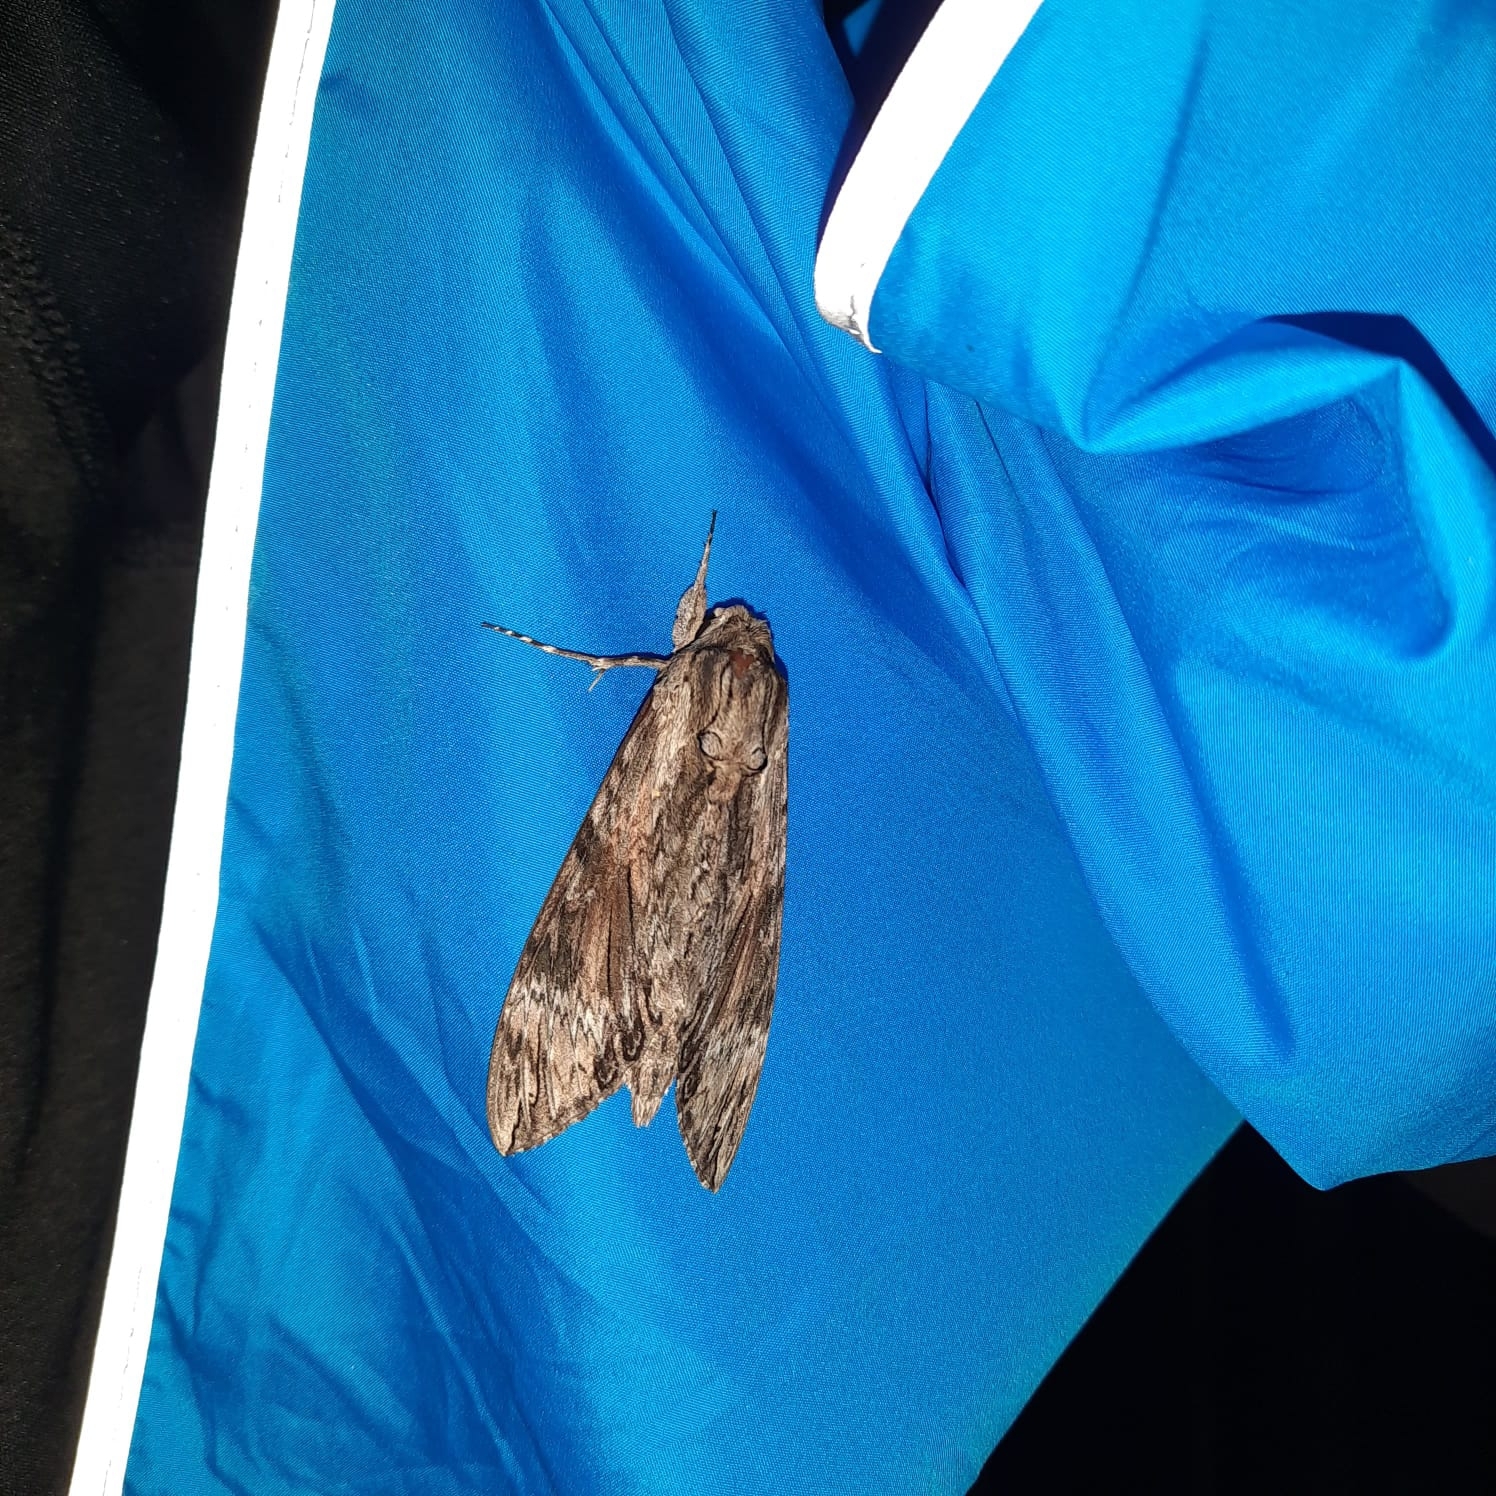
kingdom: Animalia
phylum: Arthropoda
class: Insecta
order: Lepidoptera
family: Sphingidae
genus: Agrius
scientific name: Agrius convolvuli
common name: Convolvulus hawkmoth
